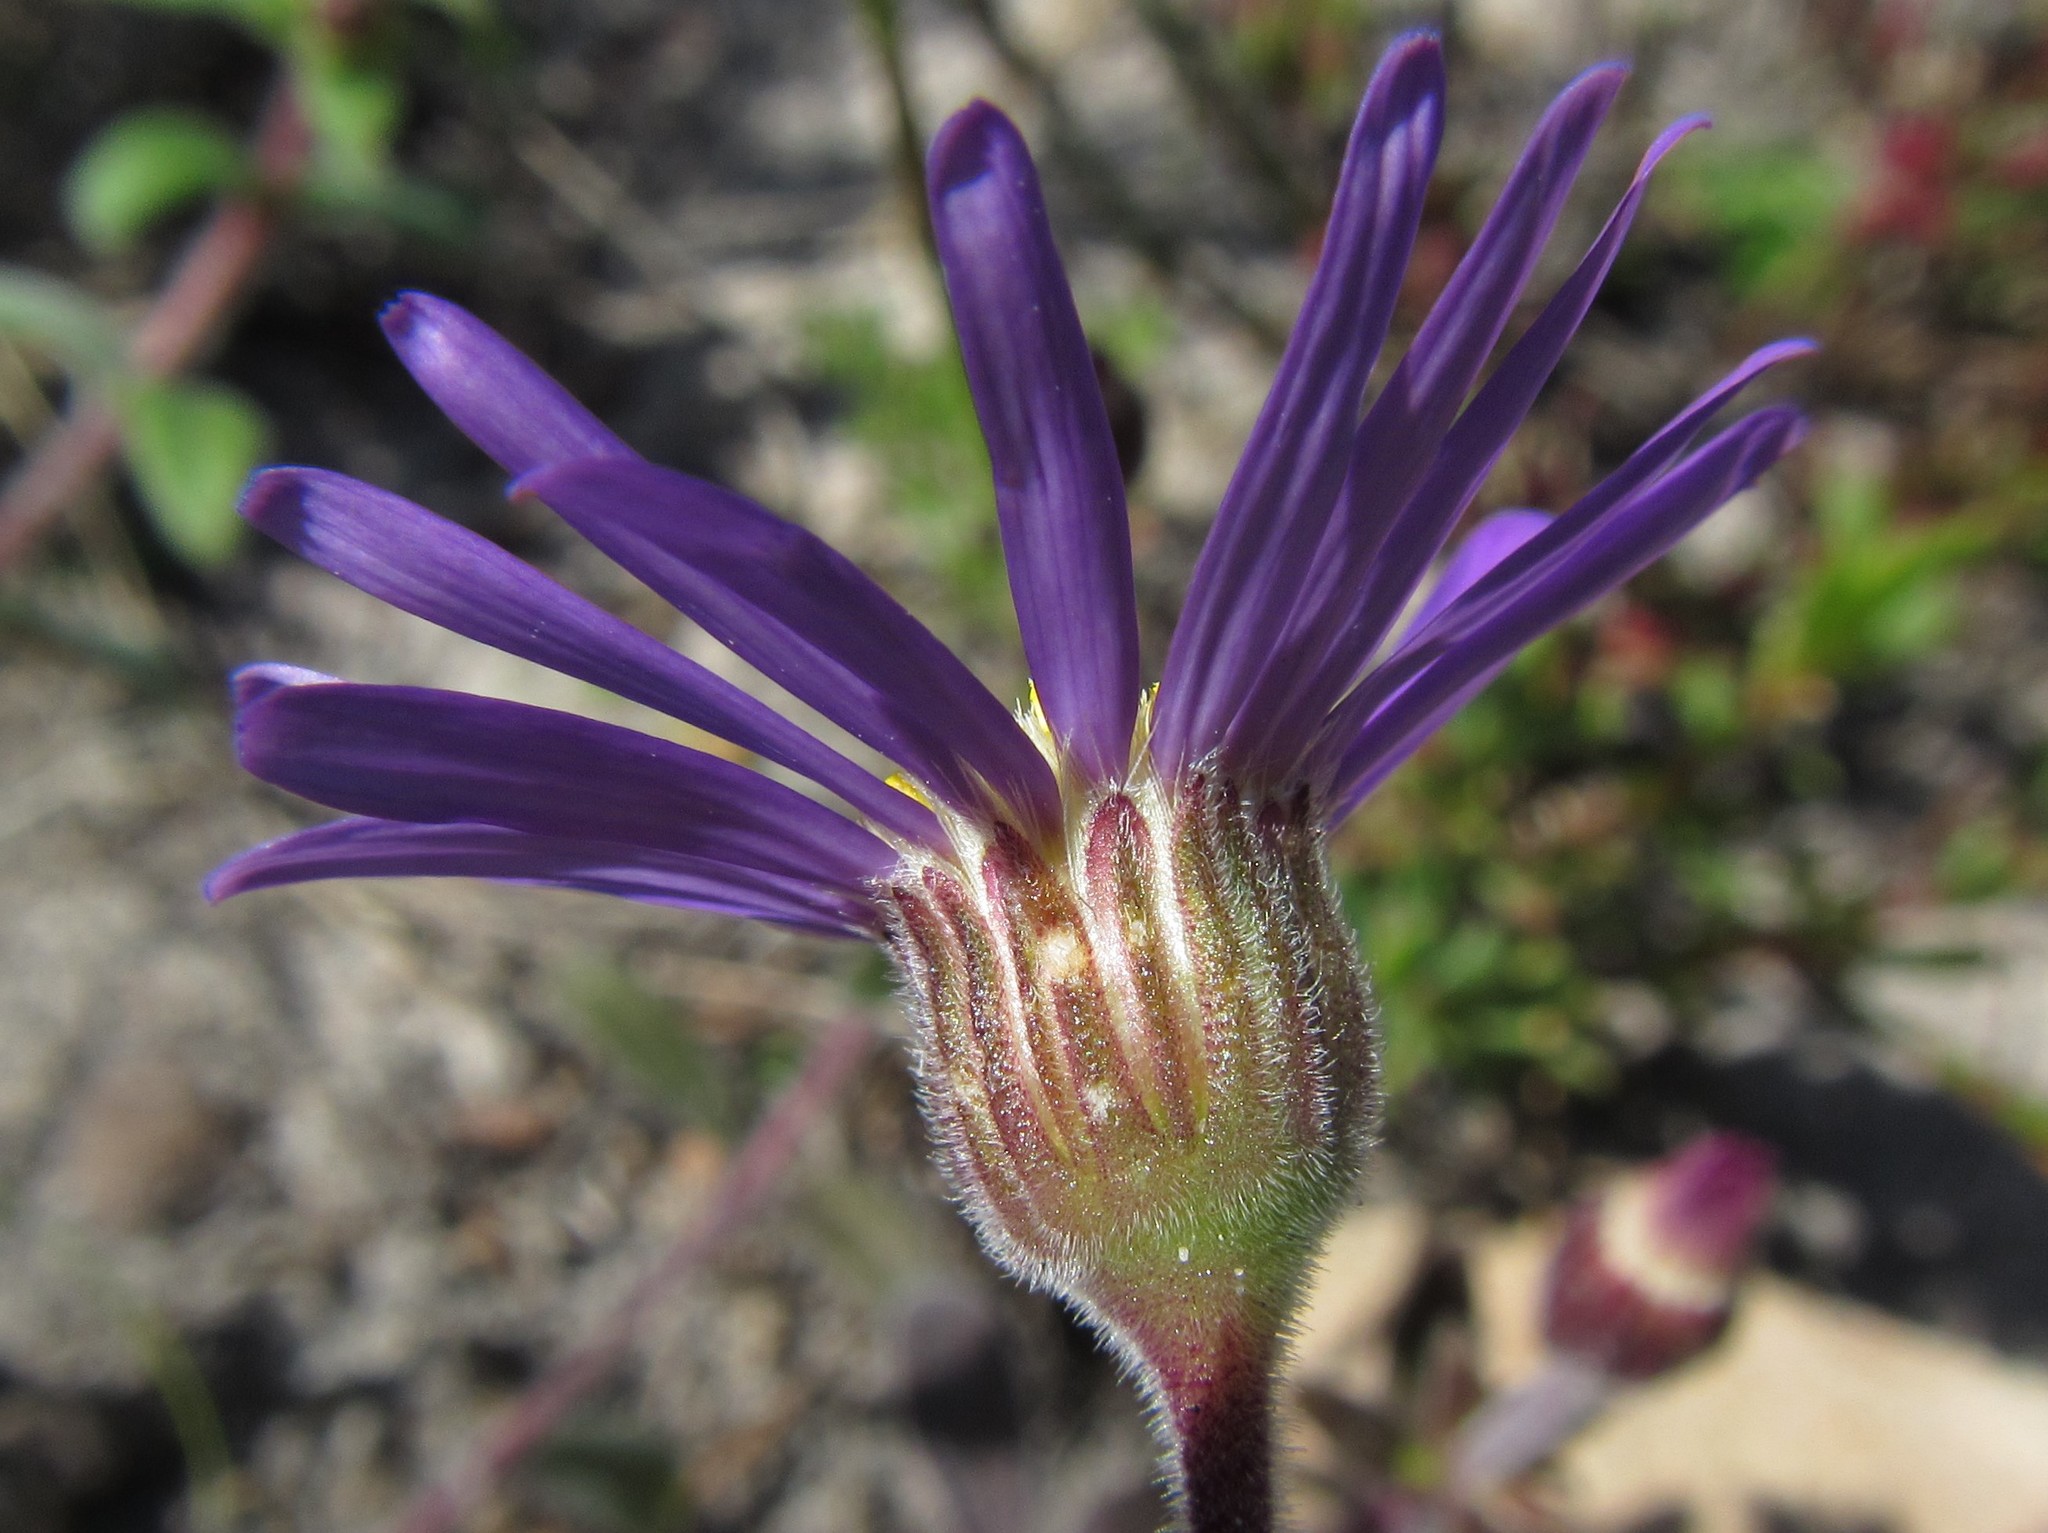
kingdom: Plantae
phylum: Tracheophyta
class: Magnoliopsida
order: Asterales
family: Asteraceae
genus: Felicia
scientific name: Felicia amoena
